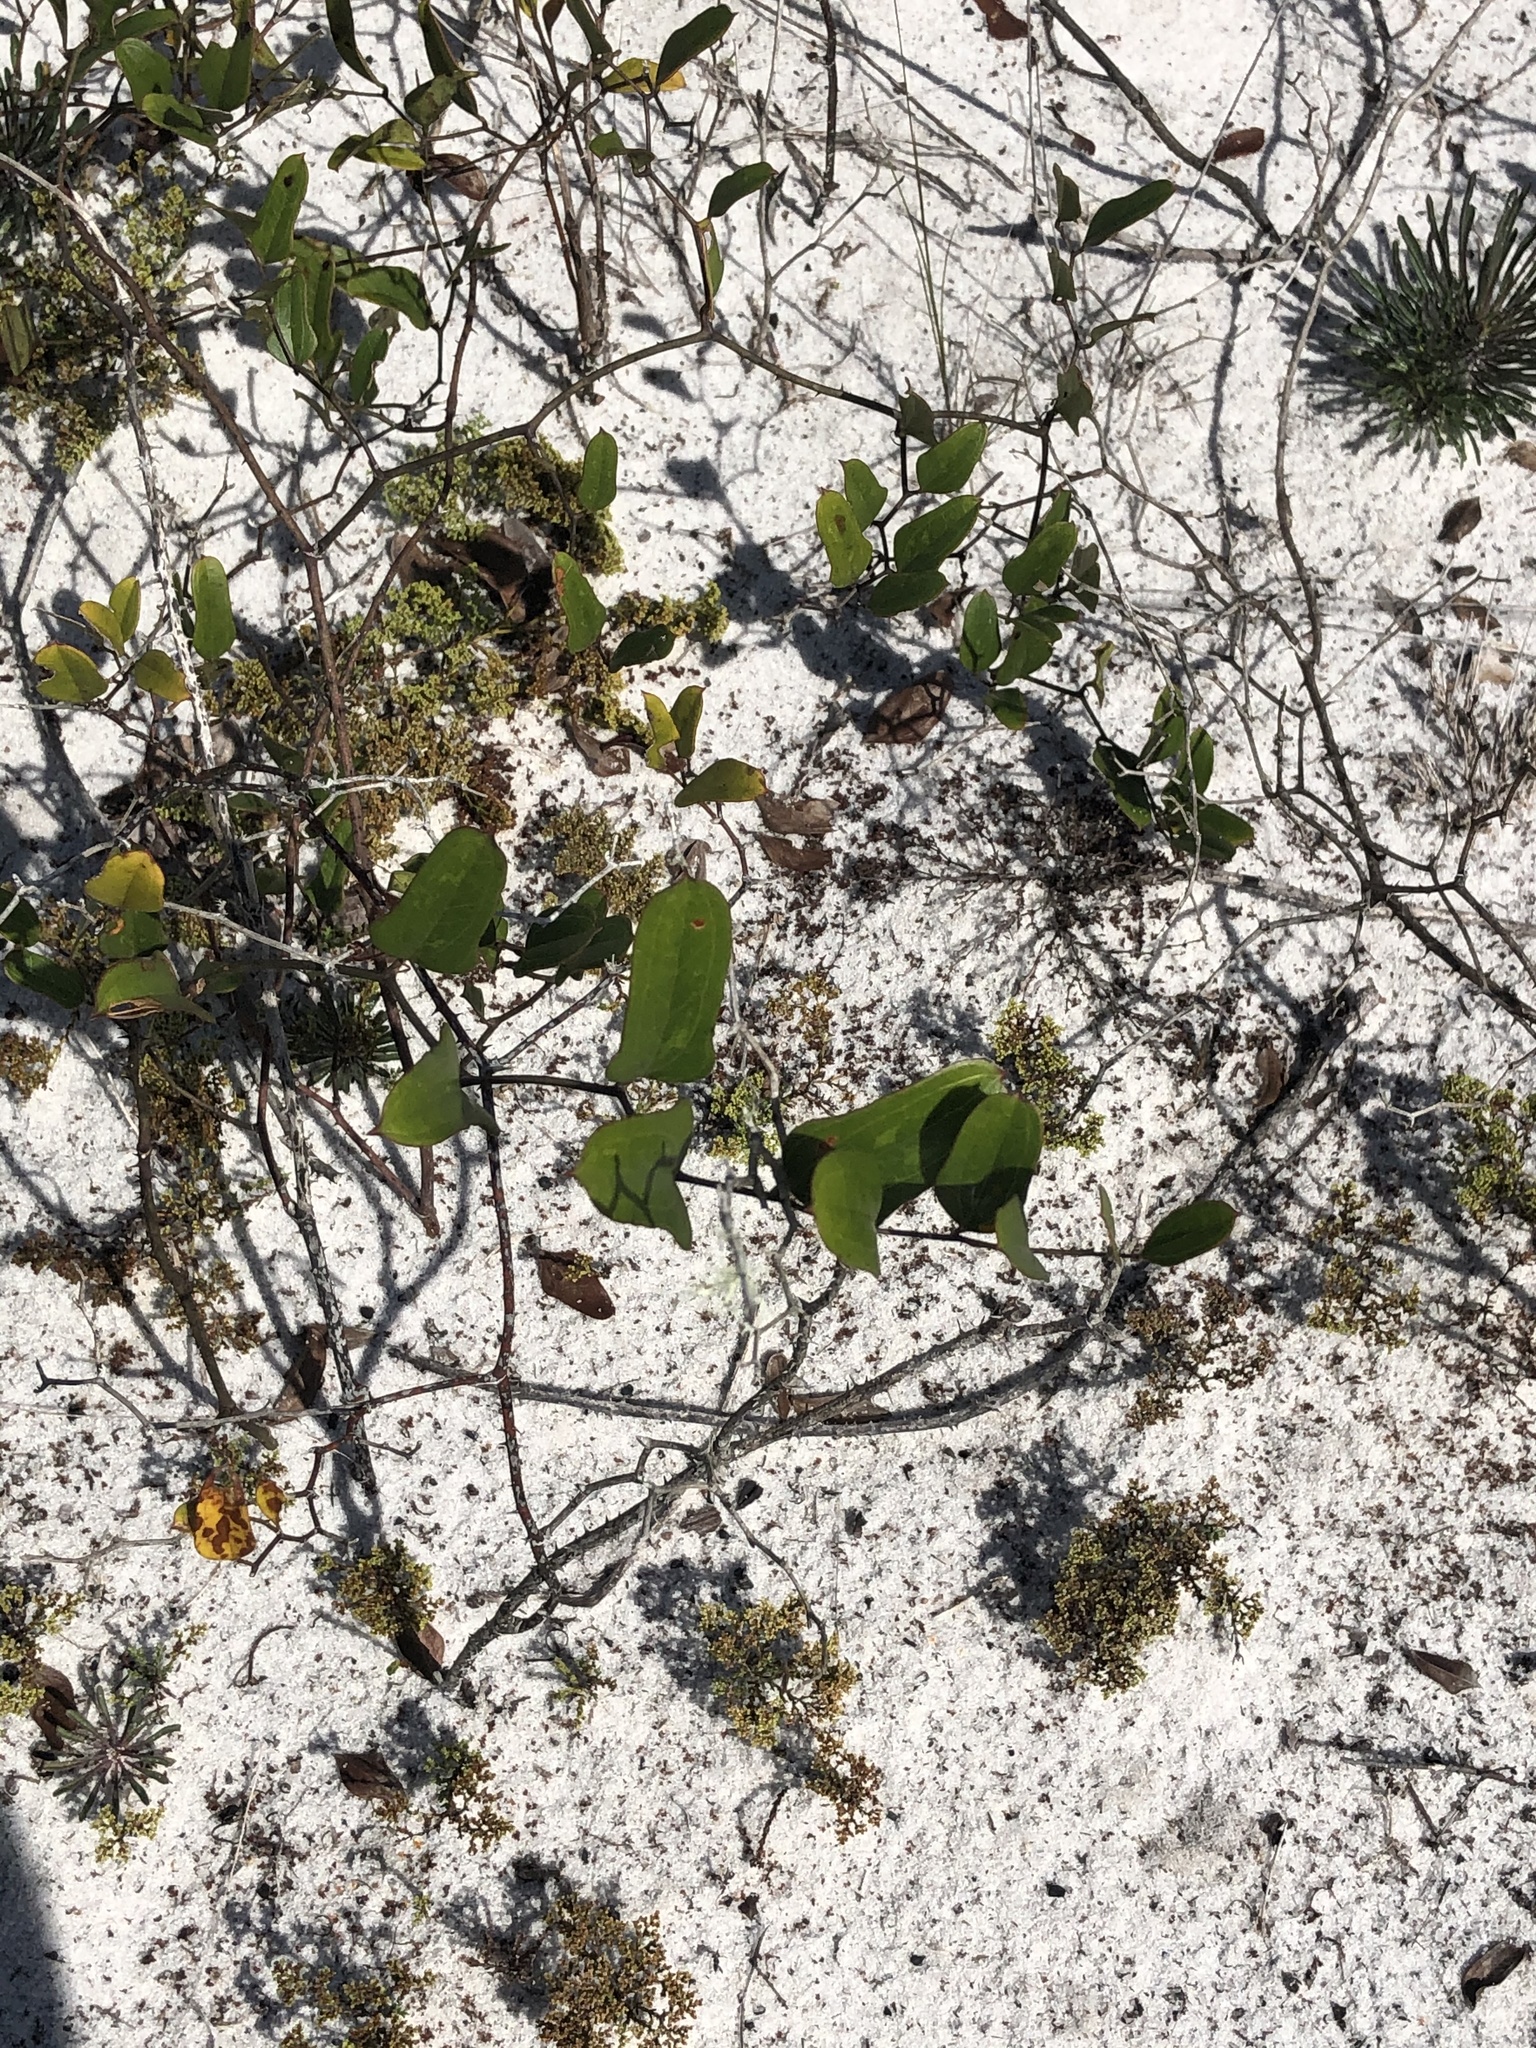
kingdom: Plantae
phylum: Tracheophyta
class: Liliopsida
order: Liliales
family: Smilacaceae
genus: Smilax
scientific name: Smilax auriculata
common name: Wild bamboo
